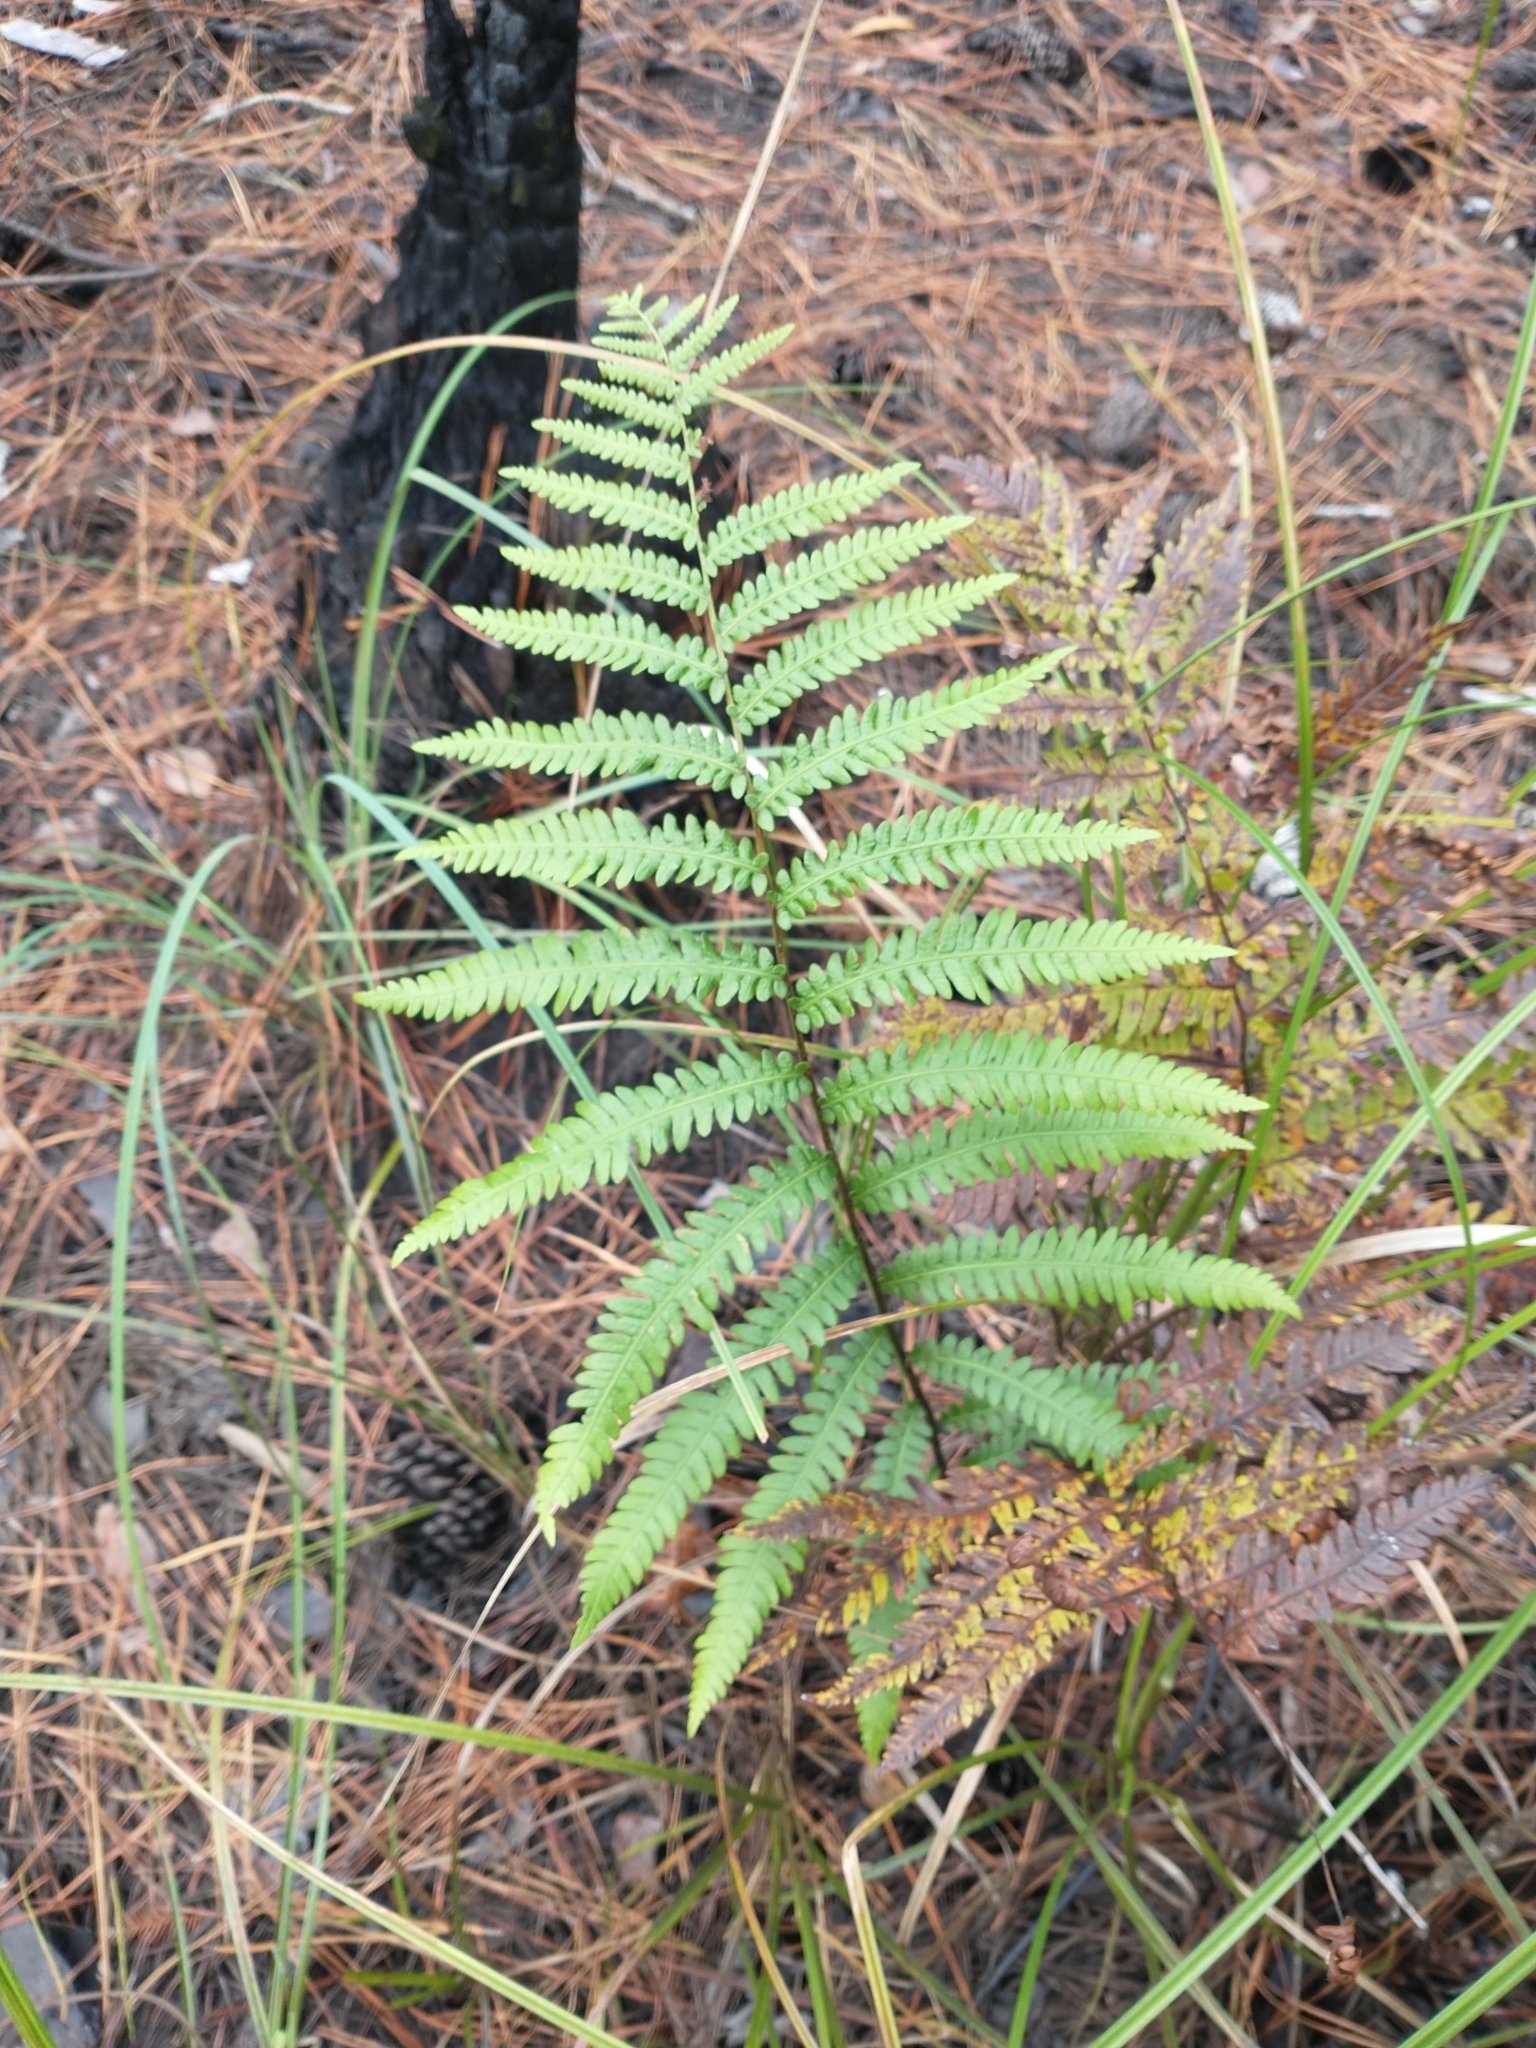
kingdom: Plantae
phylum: Tracheophyta
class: Polypodiopsida
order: Polypodiales
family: Blechnaceae
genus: Anchistea
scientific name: Anchistea virginica
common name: Virginia chain fern
